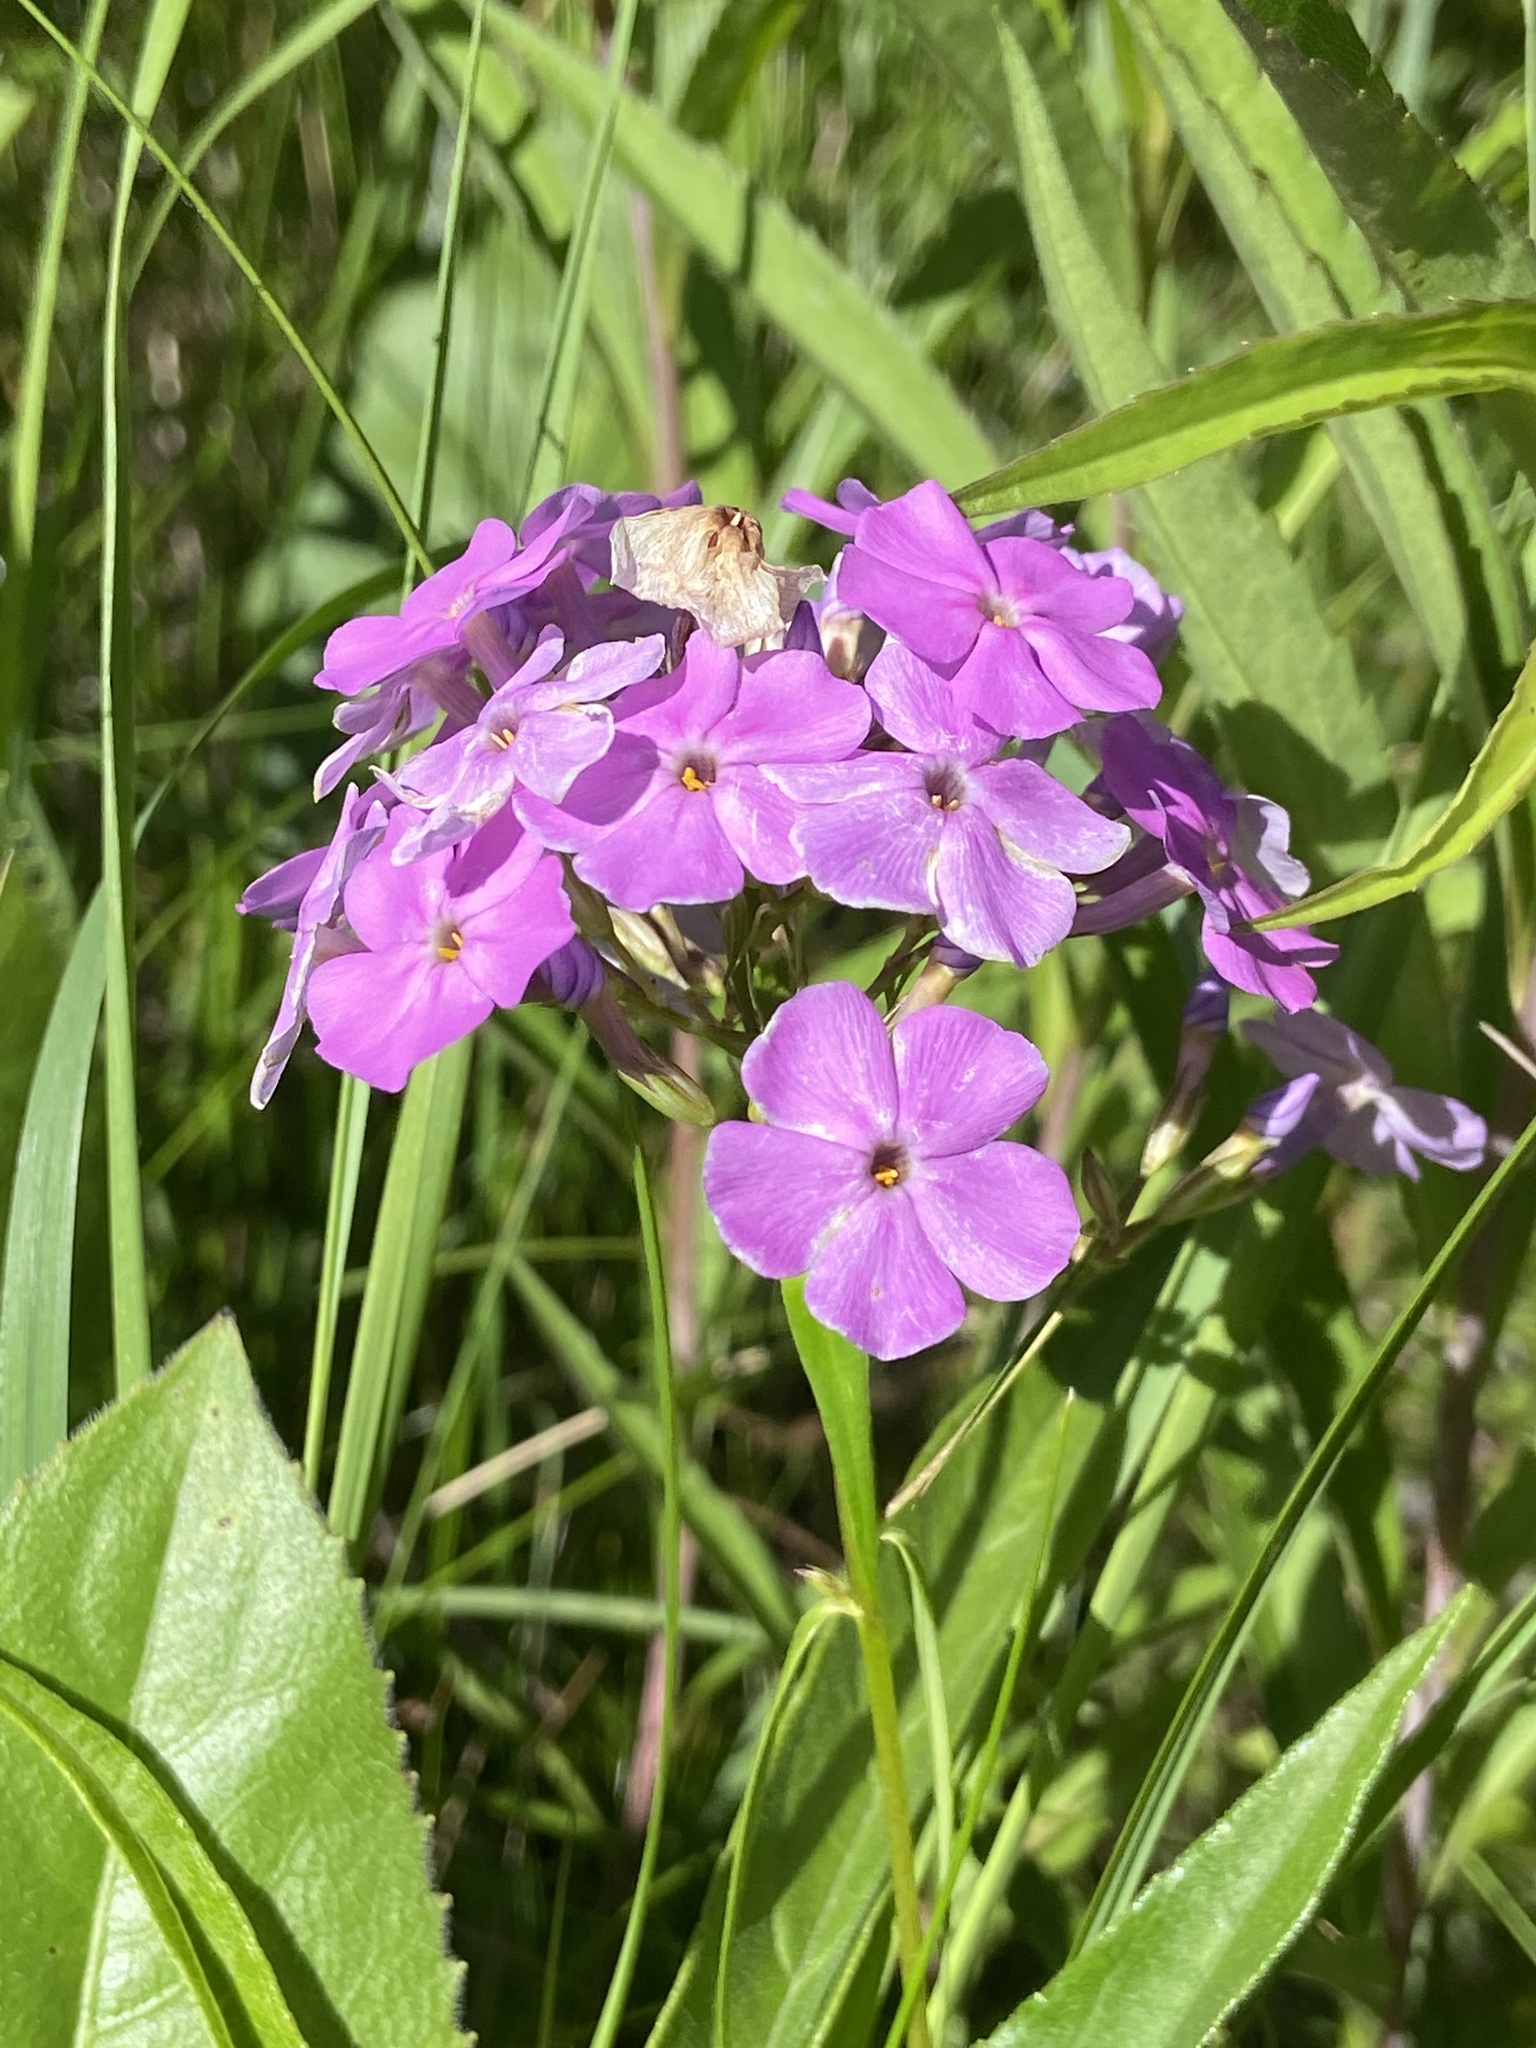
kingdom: Plantae
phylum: Tracheophyta
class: Magnoliopsida
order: Ericales
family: Polemoniaceae
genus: Phlox
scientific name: Phlox glaberrima
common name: Smooth phlox
